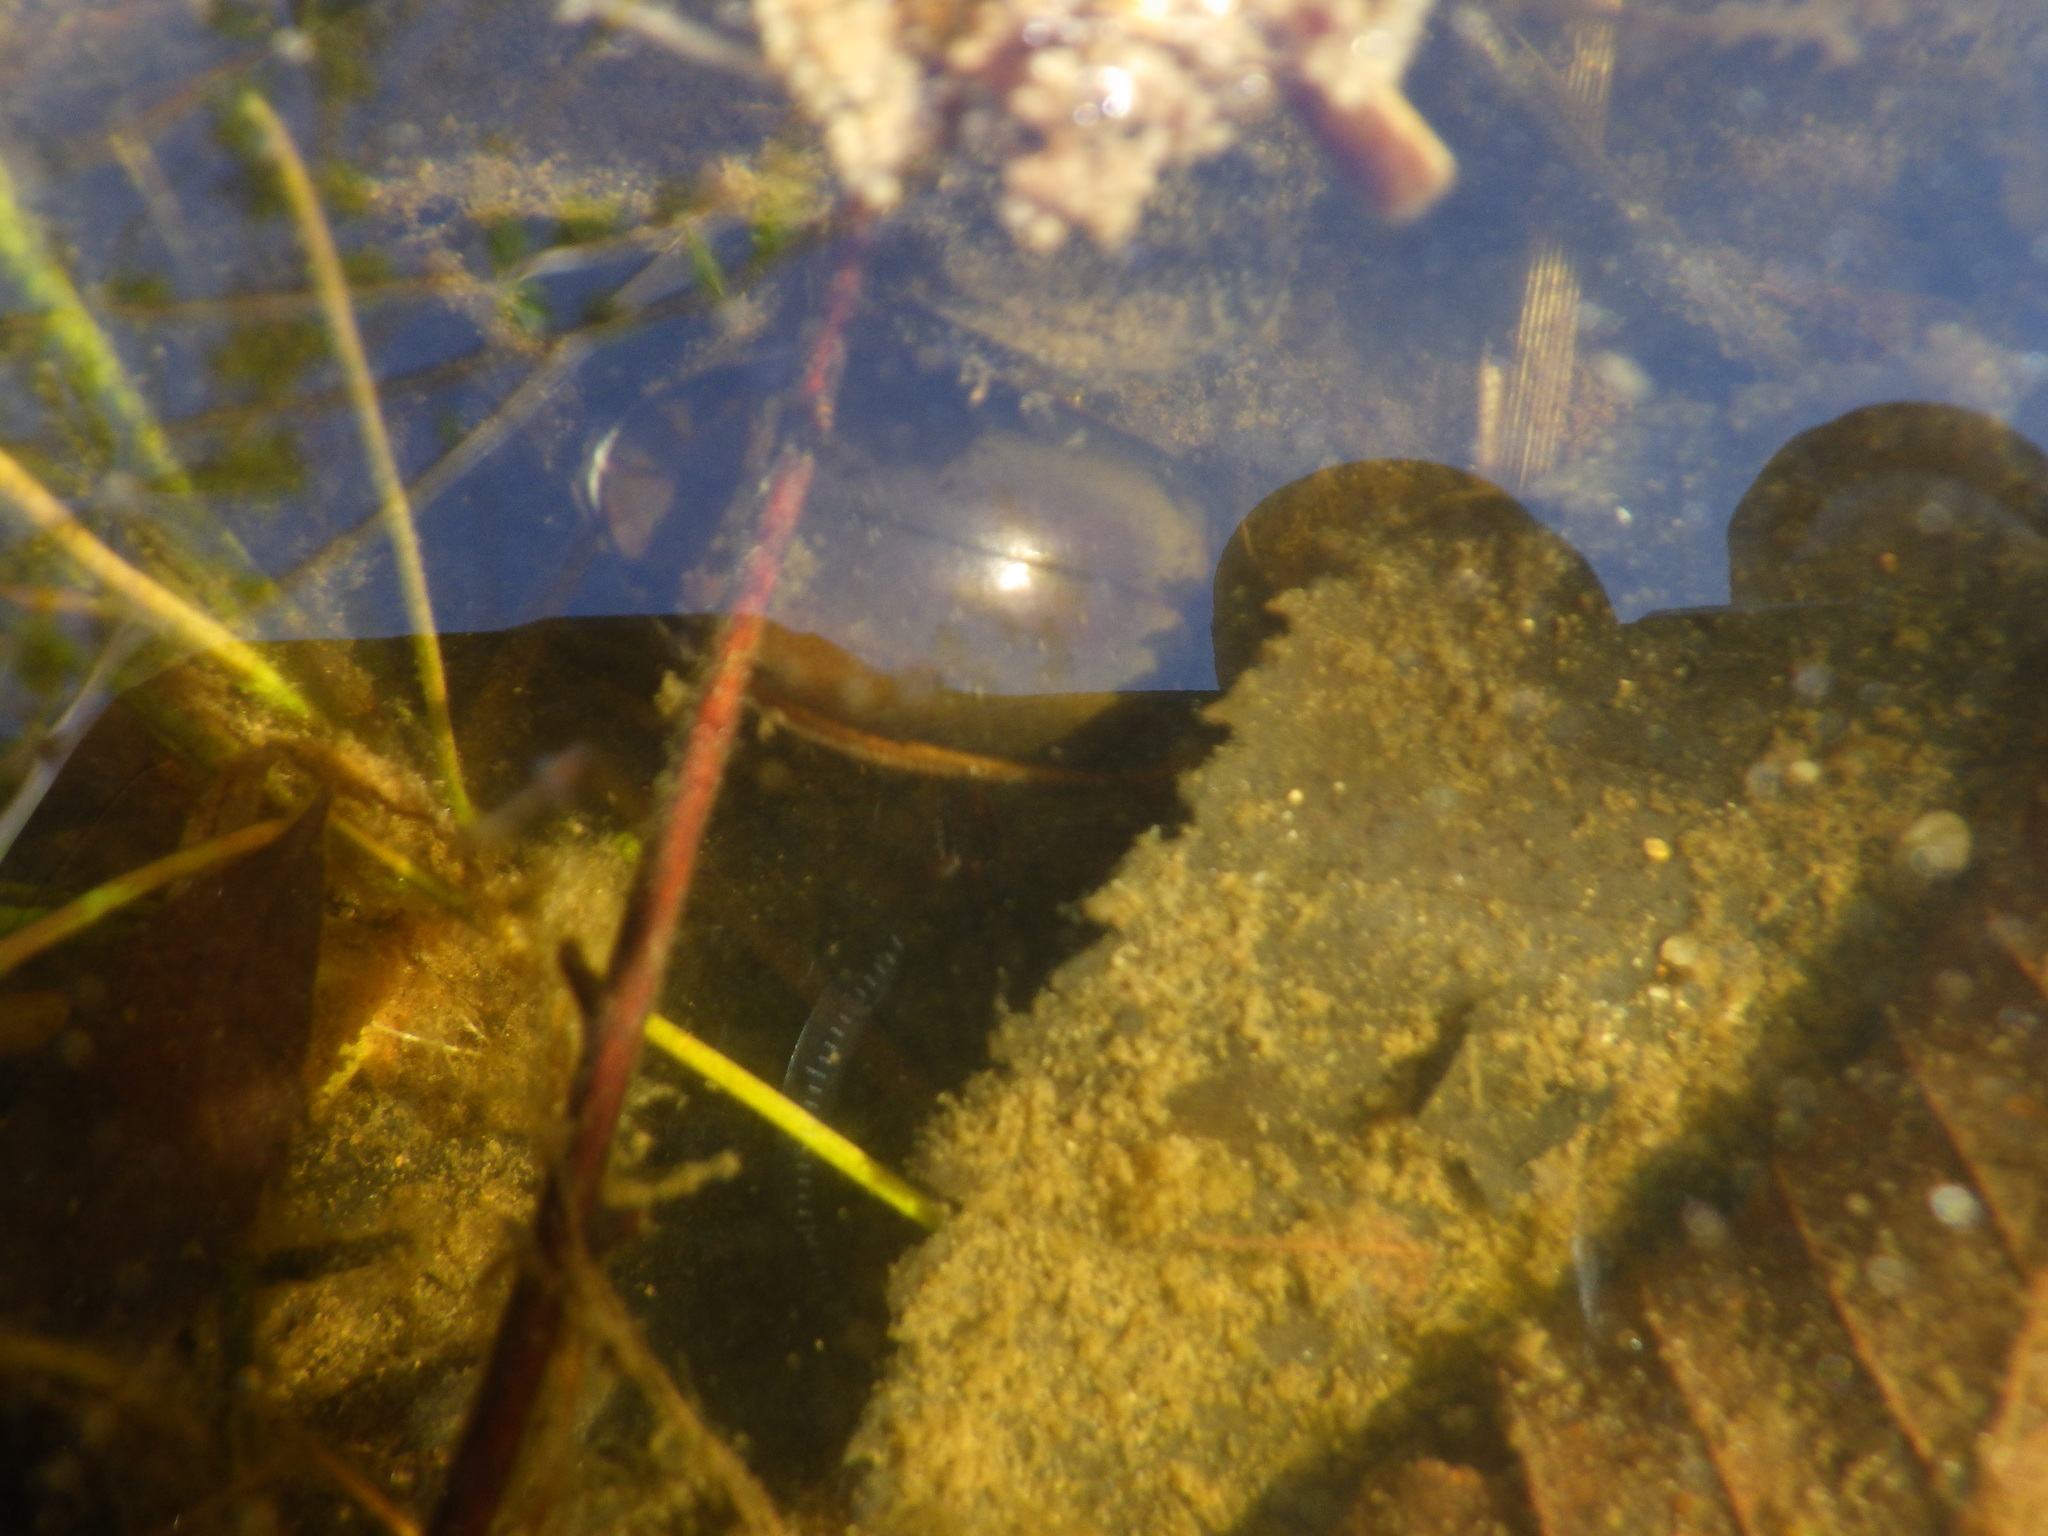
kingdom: Animalia
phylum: Arthropoda
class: Insecta
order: Coleoptera
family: Dytiscidae
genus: Dytiscus
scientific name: Dytiscus
